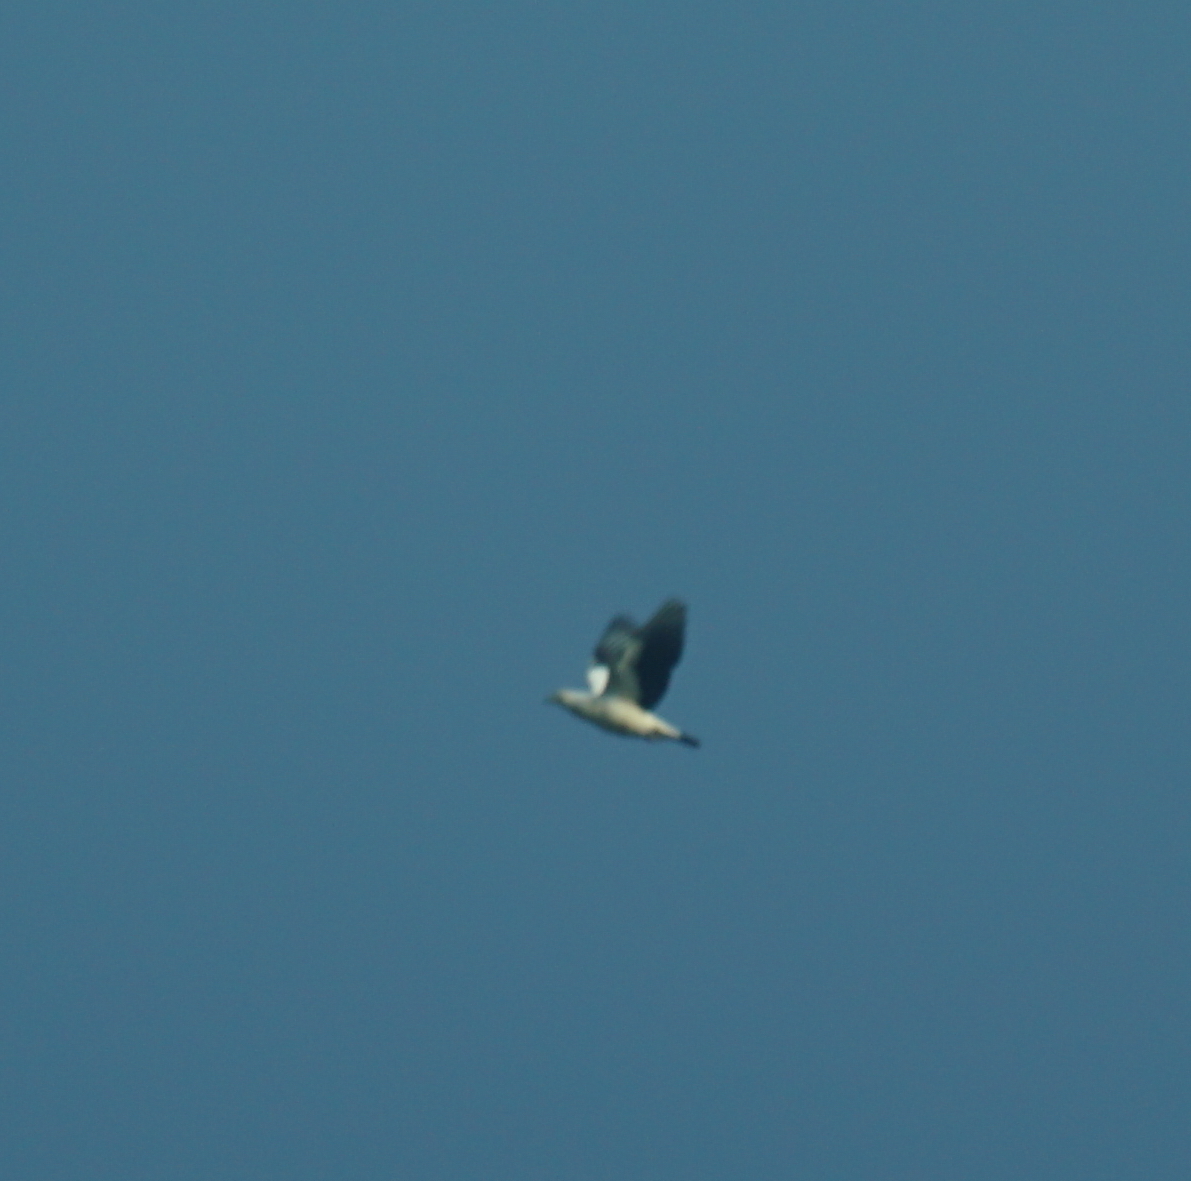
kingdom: Animalia
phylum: Chordata
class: Aves
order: Columbiformes
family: Columbidae
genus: Ducula
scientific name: Ducula spilorrhoa
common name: Torresian imperial pigeon
